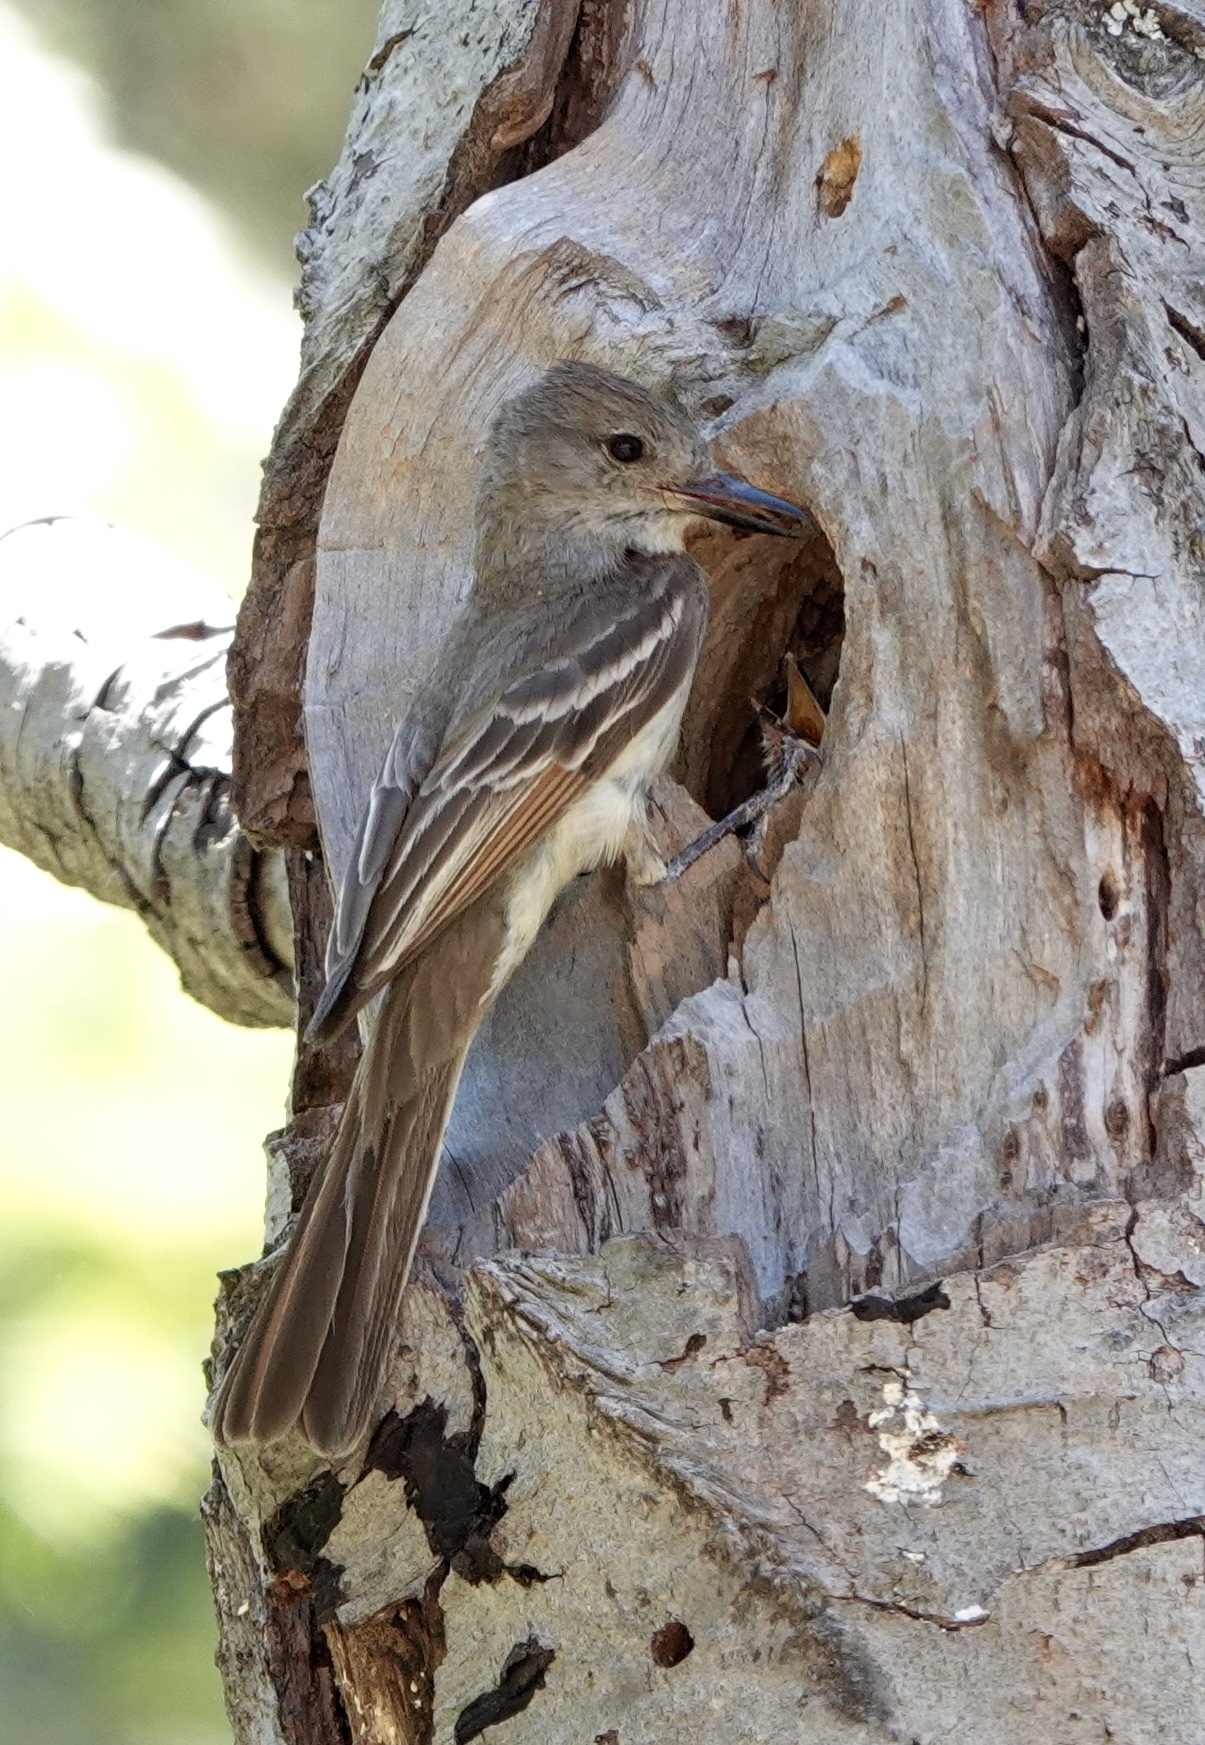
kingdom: Animalia
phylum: Chordata
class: Aves
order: Passeriformes
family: Tyrannidae
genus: Myiarchus
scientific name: Myiarchus cinerascens
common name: Ash-throated flycatcher
